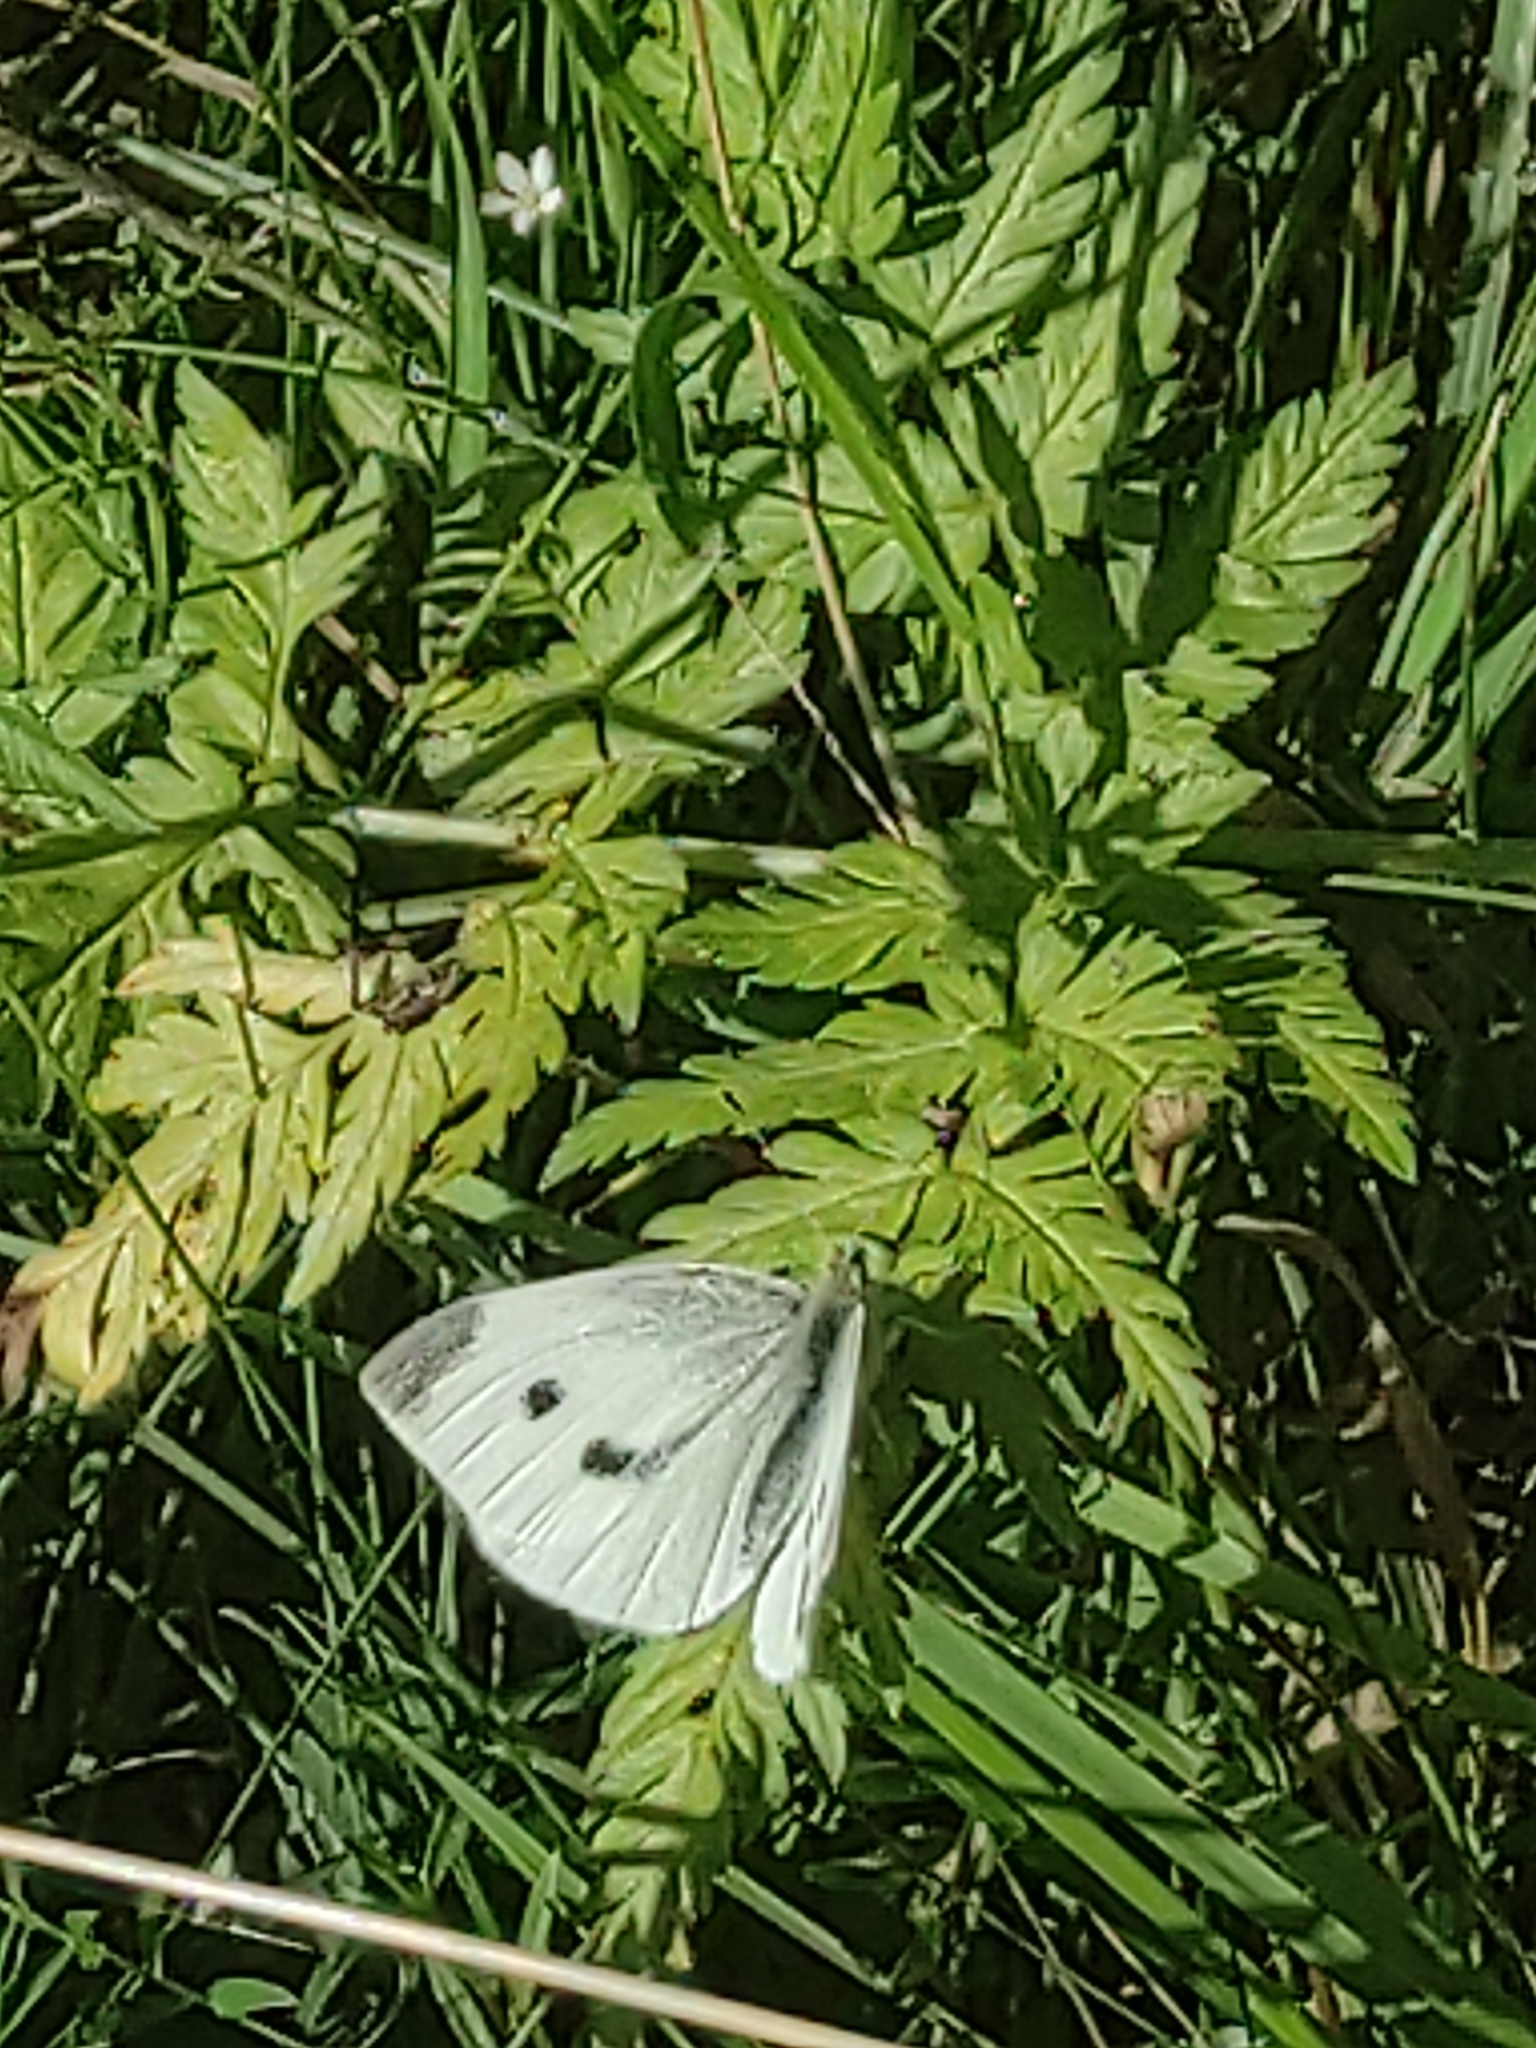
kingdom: Animalia
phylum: Arthropoda
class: Insecta
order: Lepidoptera
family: Pieridae
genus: Pieris
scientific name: Pieris rapae
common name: Small white
